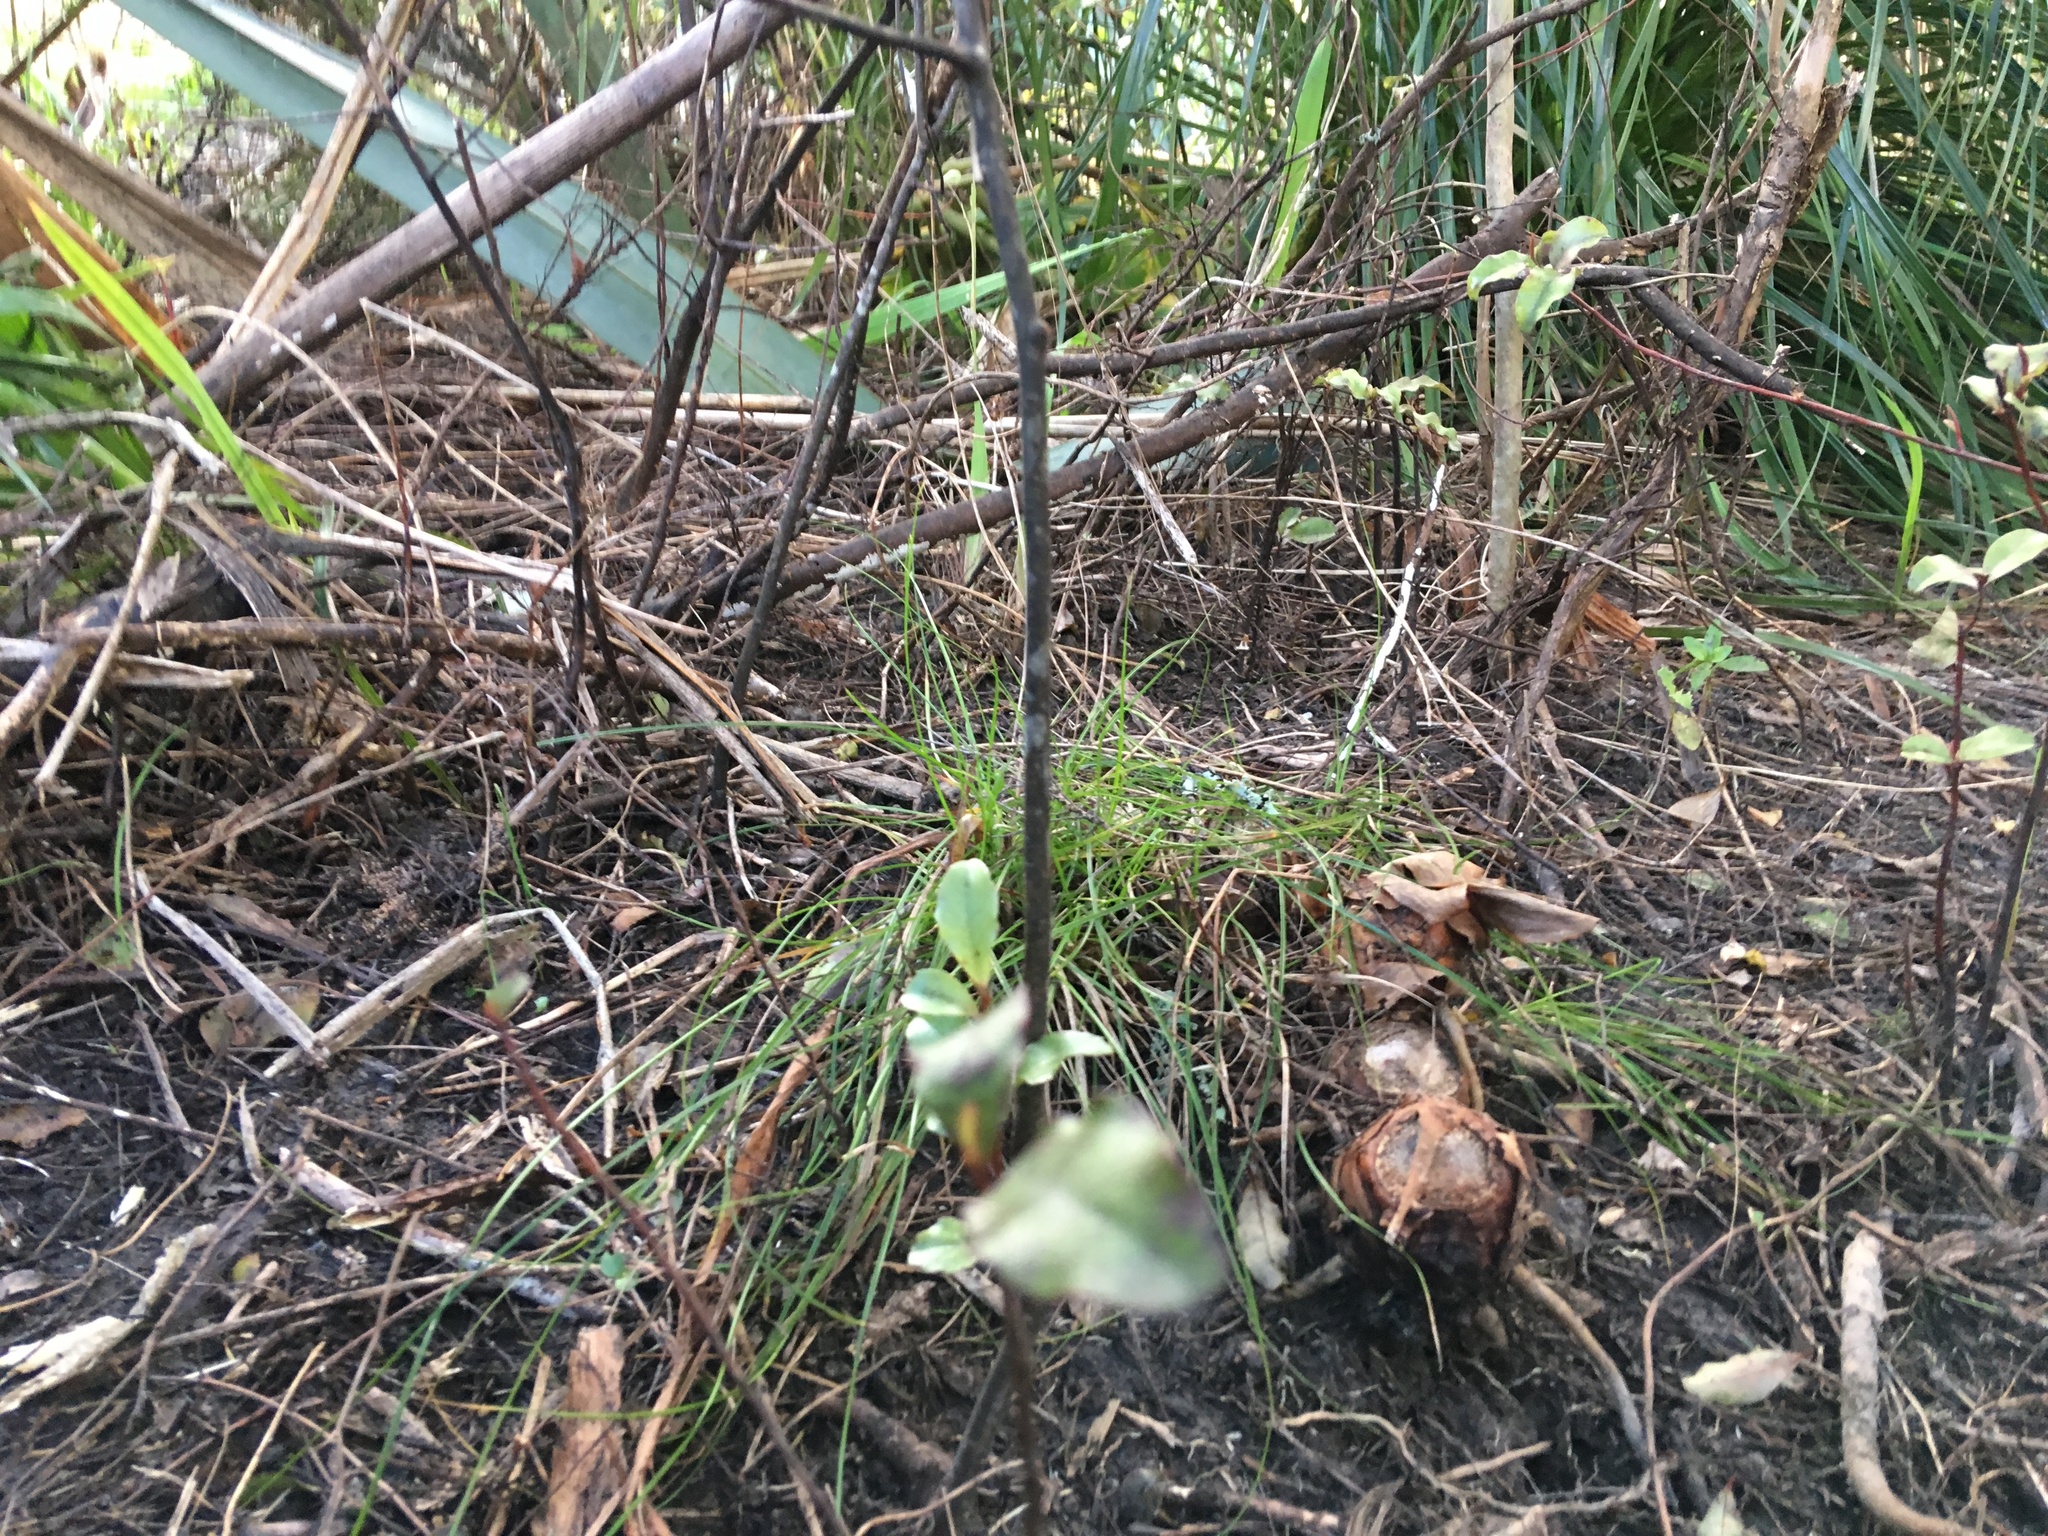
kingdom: Plantae
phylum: Tracheophyta
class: Magnoliopsida
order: Ericales
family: Primulaceae
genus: Myrsine
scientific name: Myrsine australis
